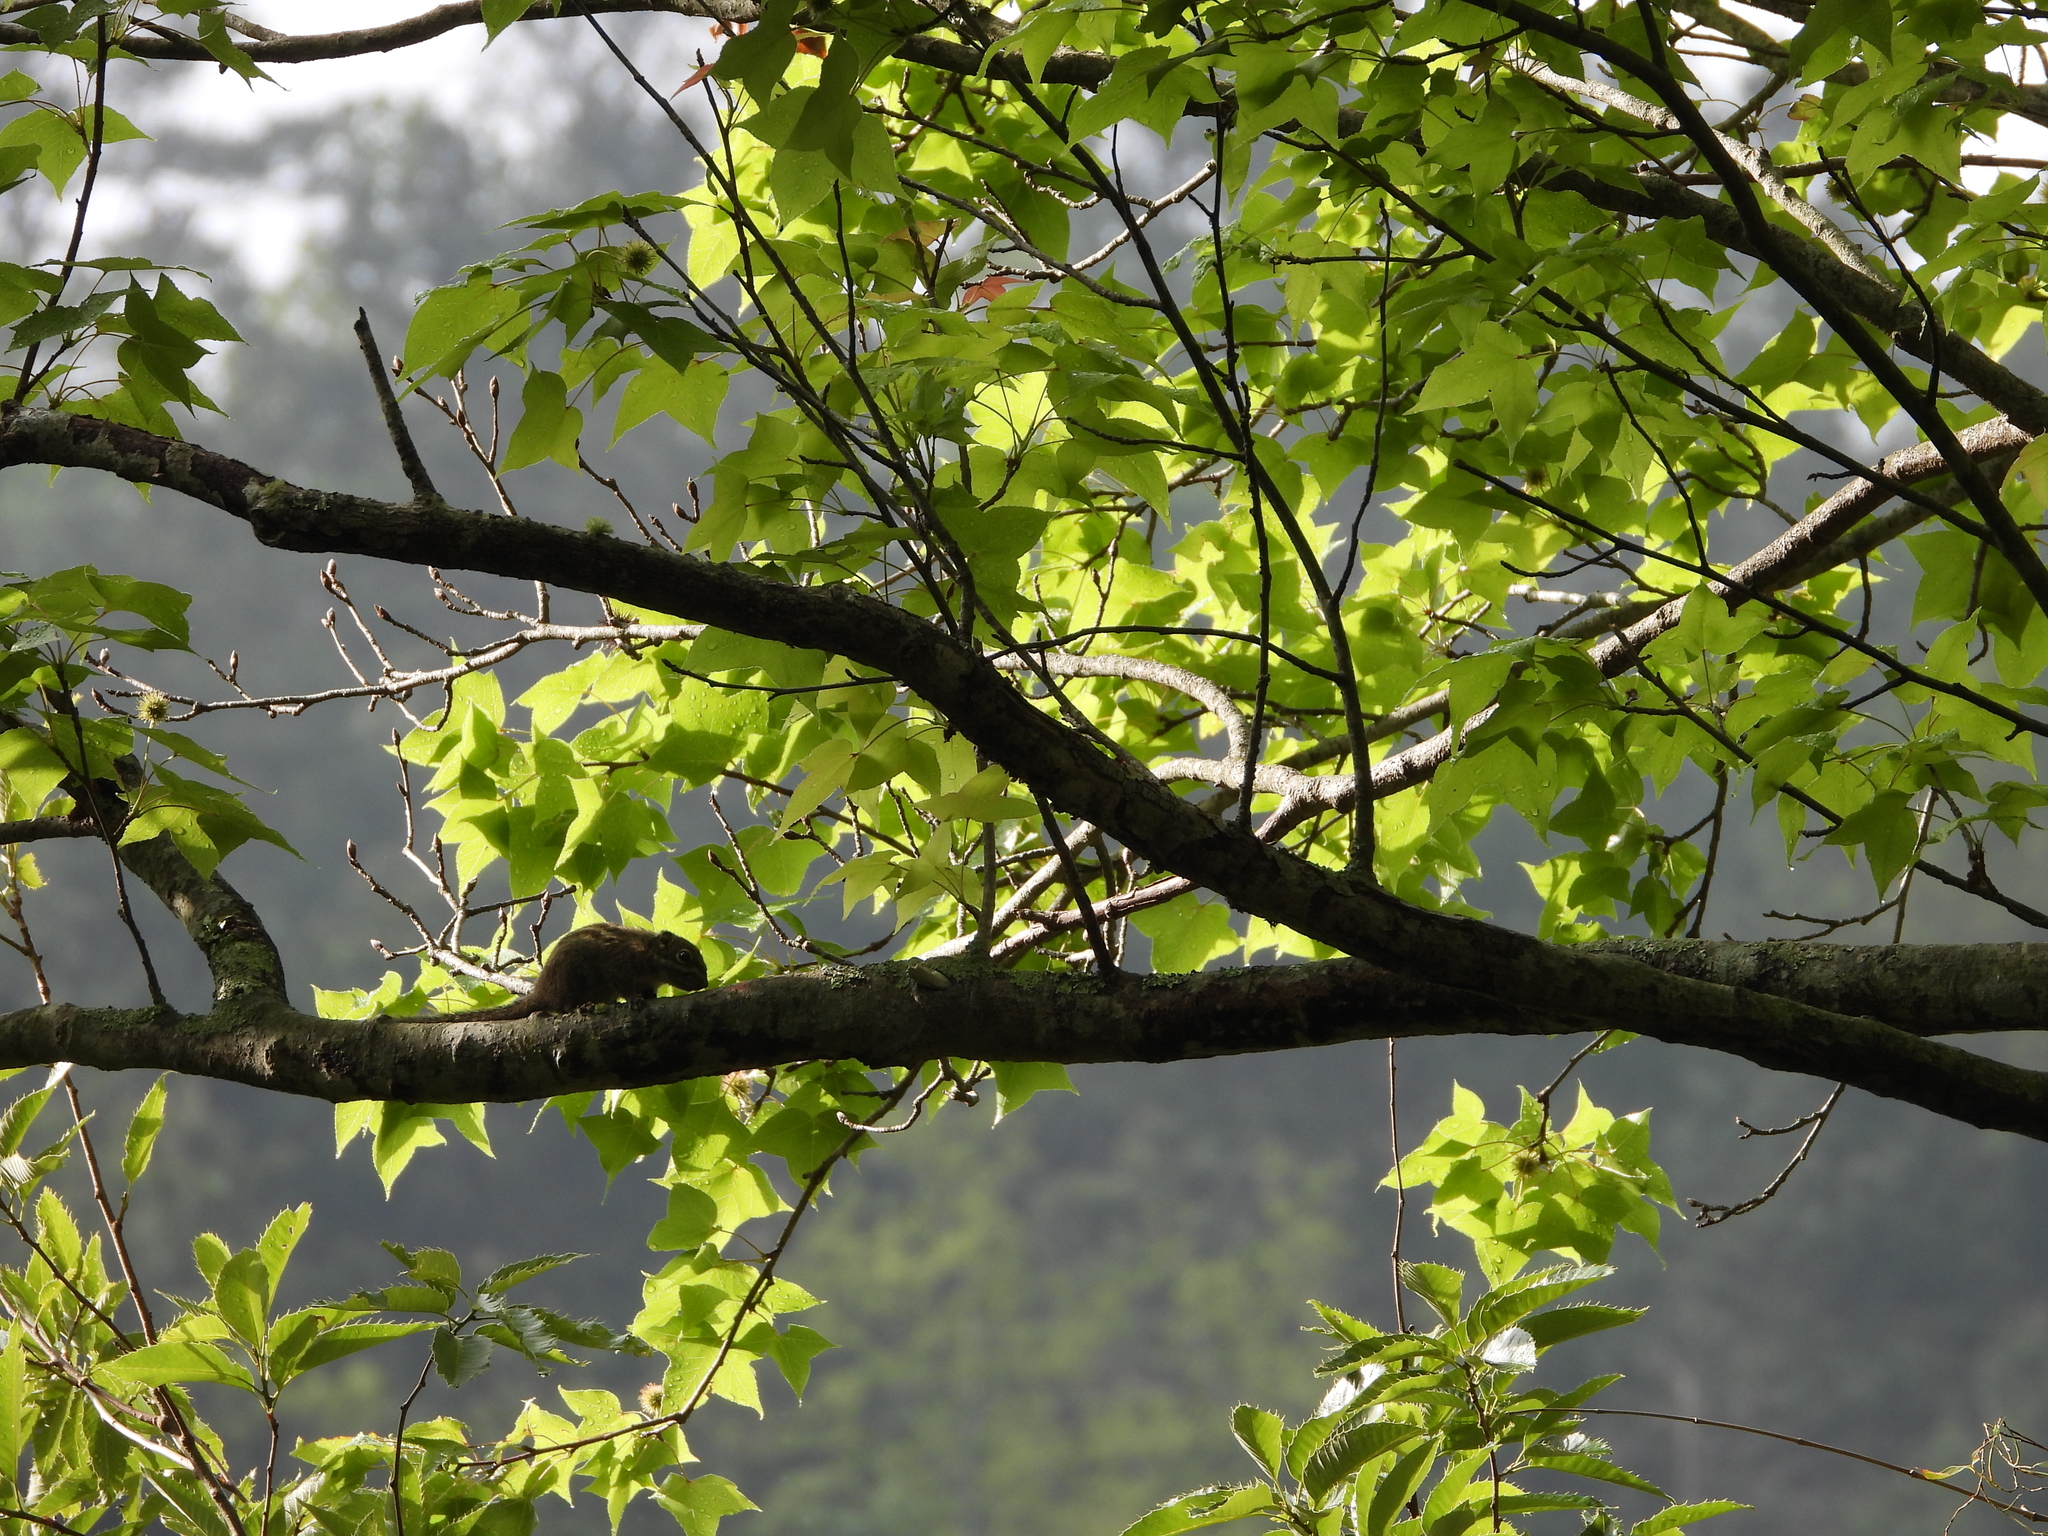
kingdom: Animalia
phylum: Chordata
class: Mammalia
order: Rodentia
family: Sciuridae
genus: Tamiops
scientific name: Tamiops maritimus
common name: Maritime striped squirrel
